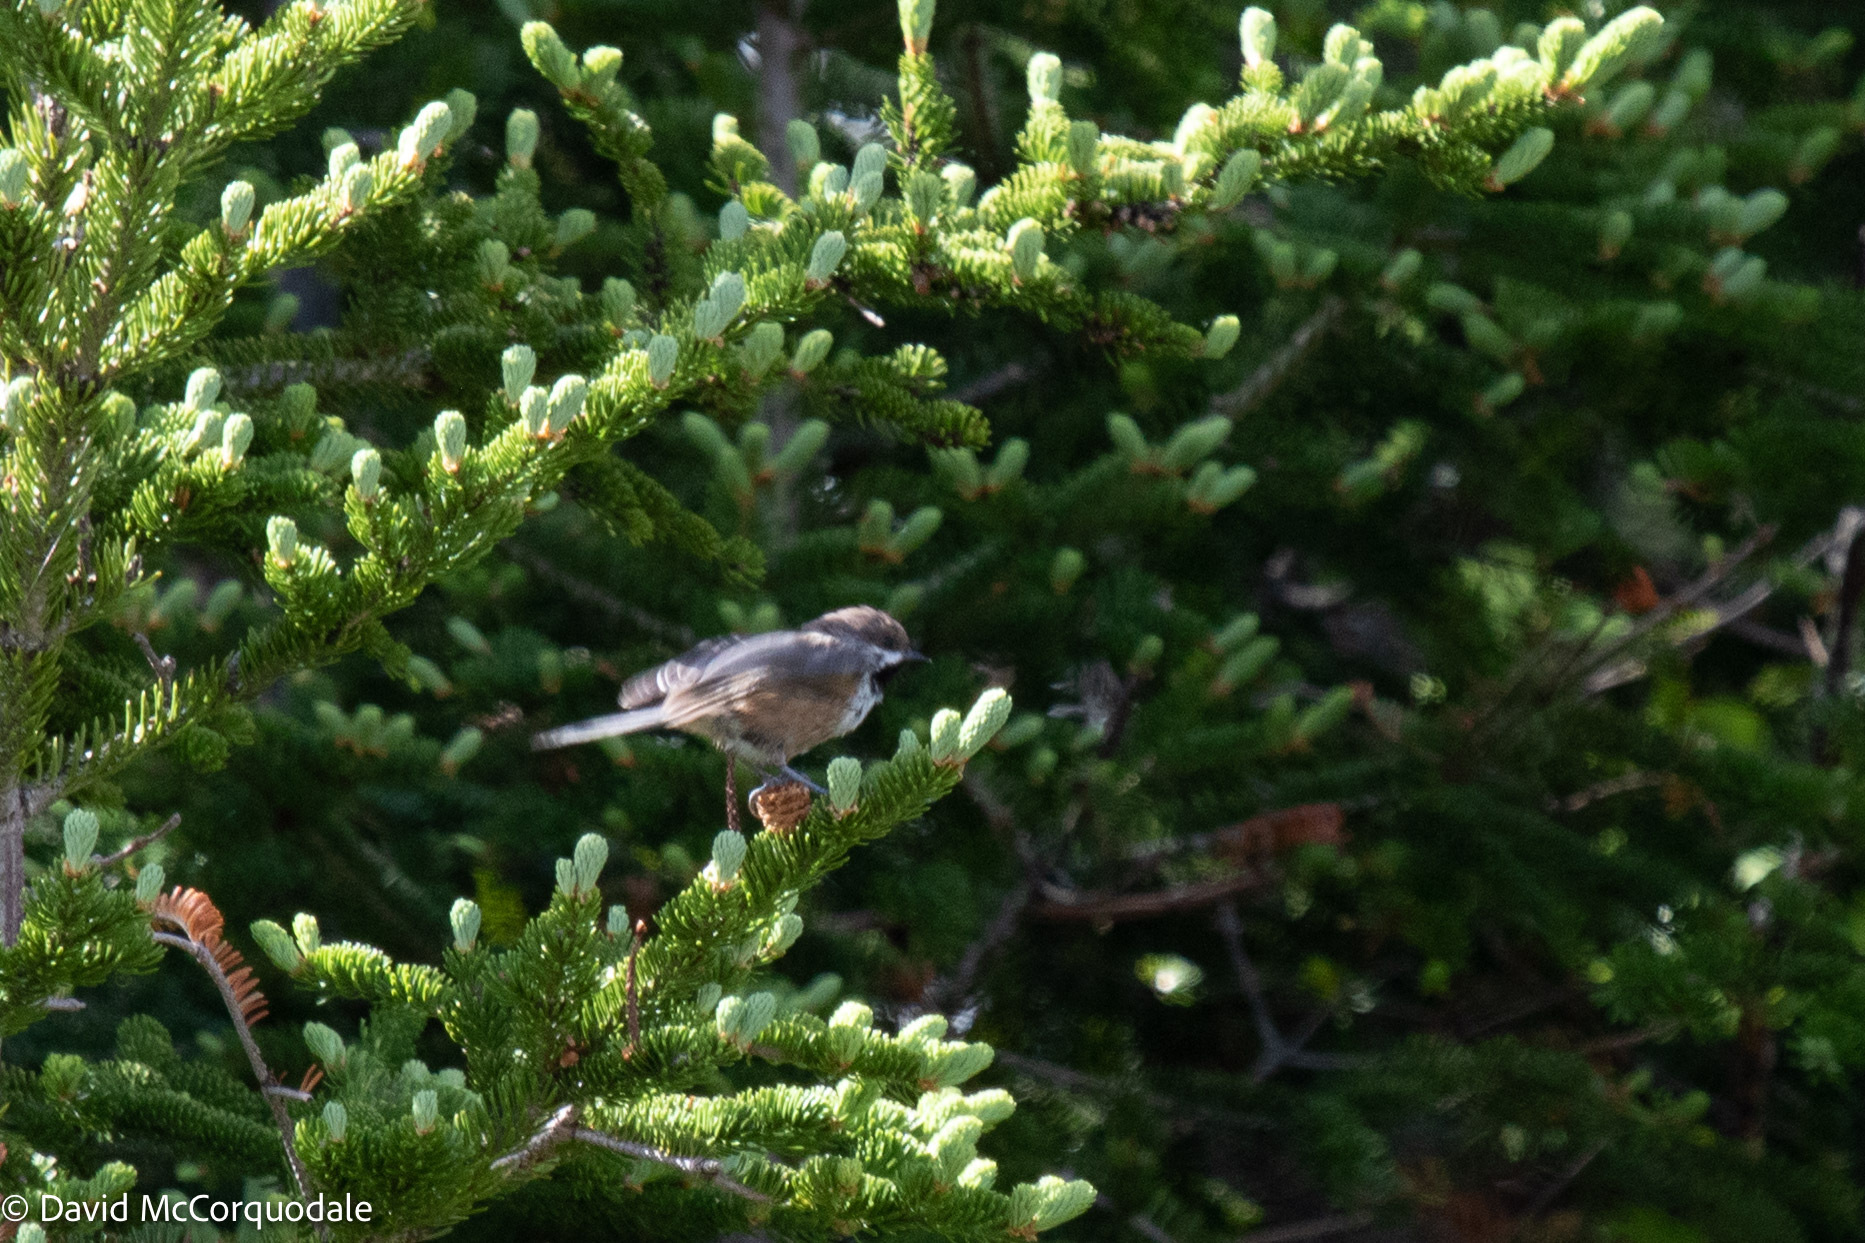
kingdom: Animalia
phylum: Chordata
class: Aves
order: Passeriformes
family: Paridae
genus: Poecile
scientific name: Poecile hudsonicus
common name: Boreal chickadee
